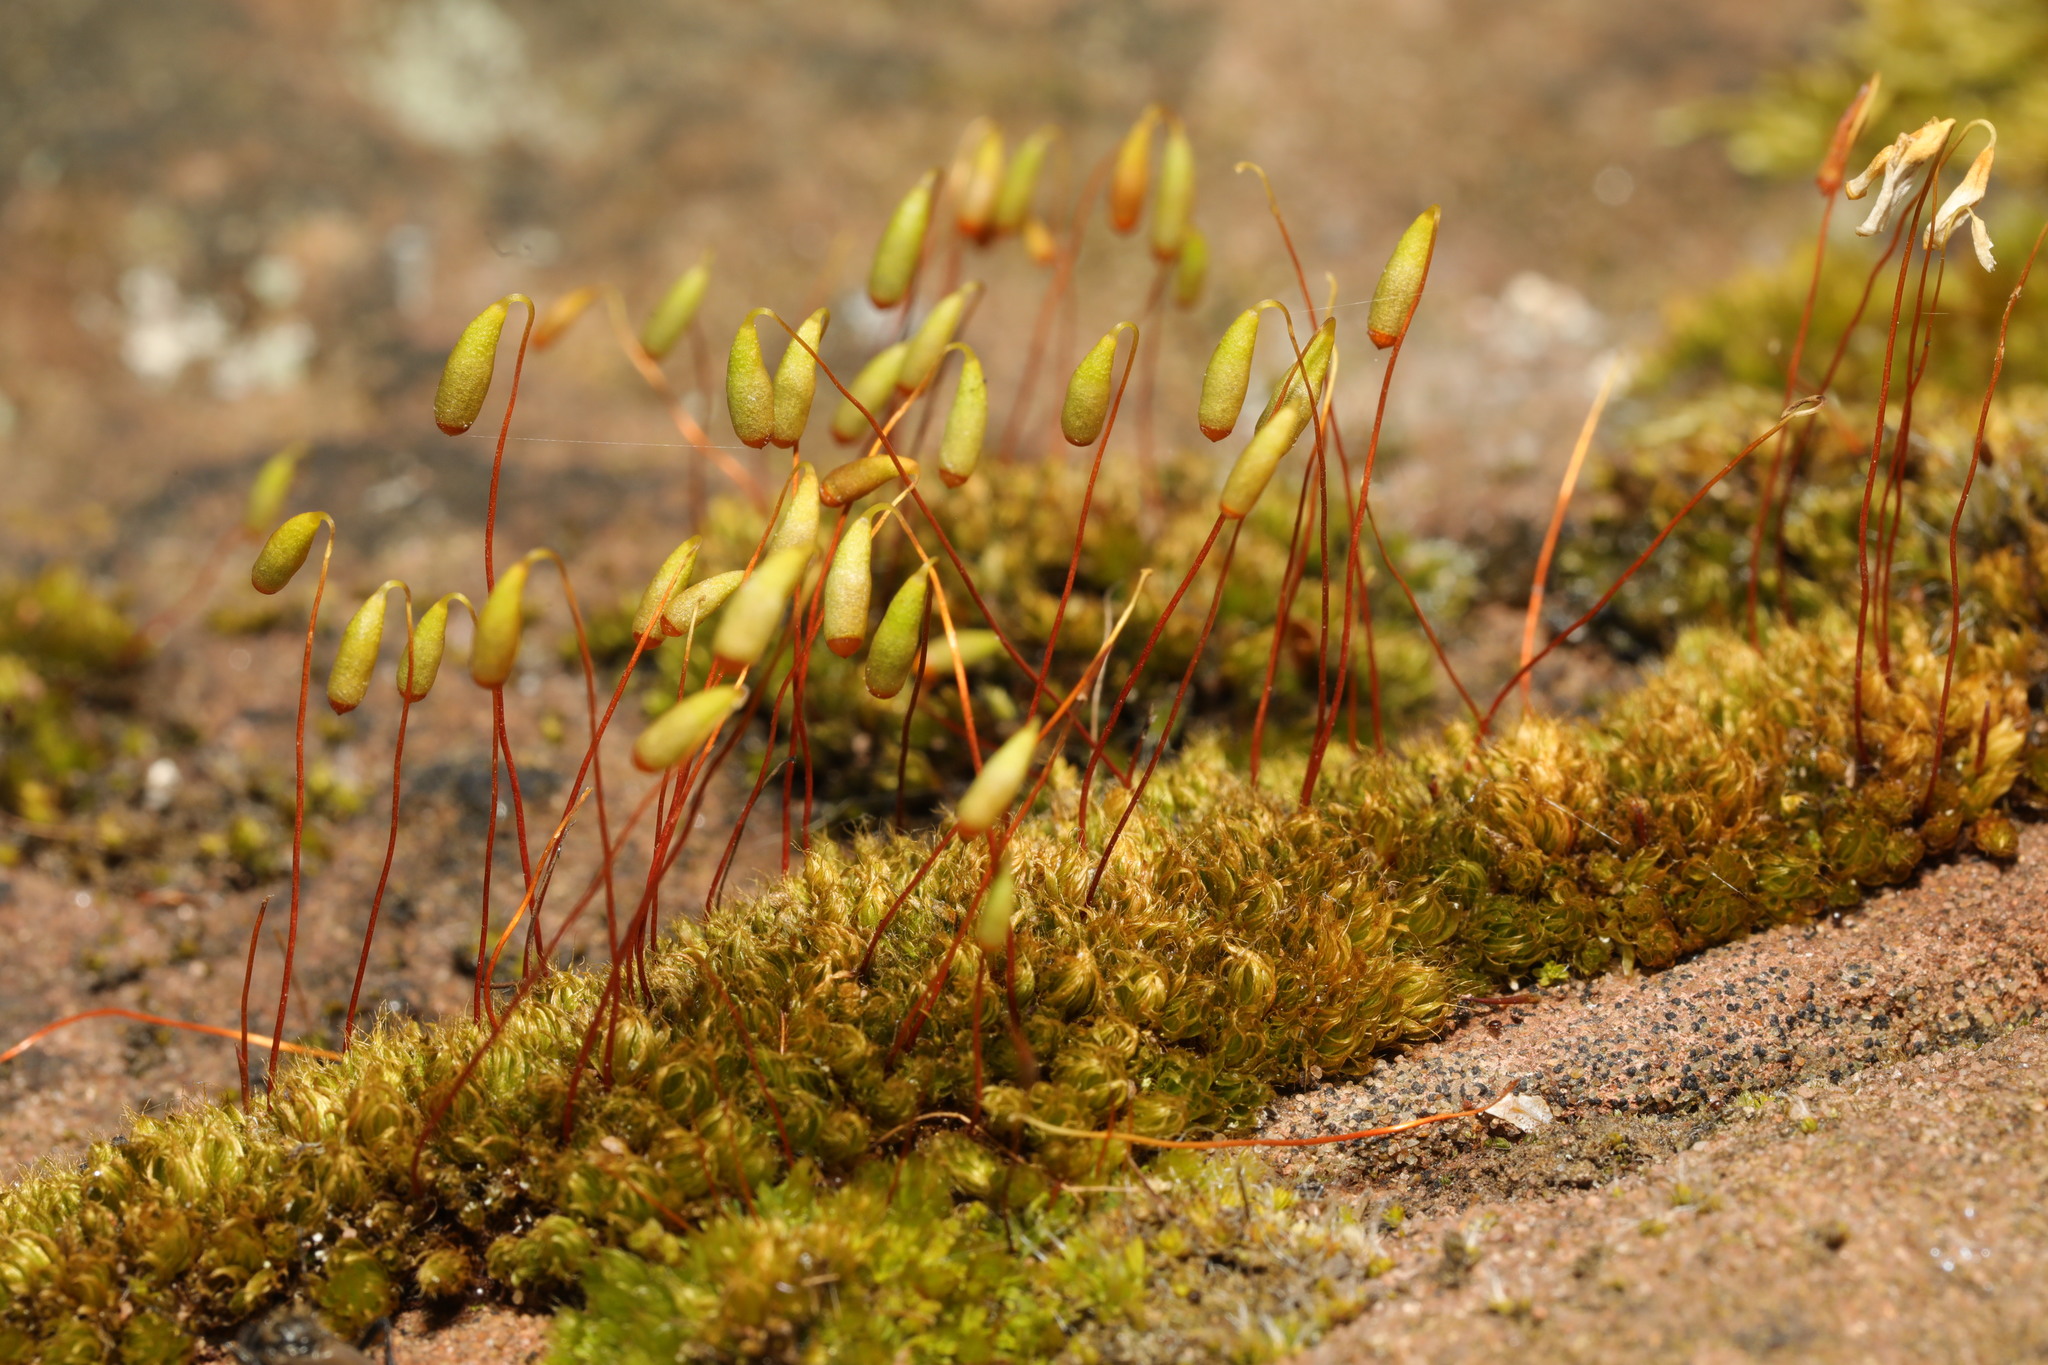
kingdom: Plantae
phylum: Bryophyta
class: Bryopsida
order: Bryales
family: Bryaceae
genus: Rosulabryum
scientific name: Rosulabryum capillare
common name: Capillary thread-moss
